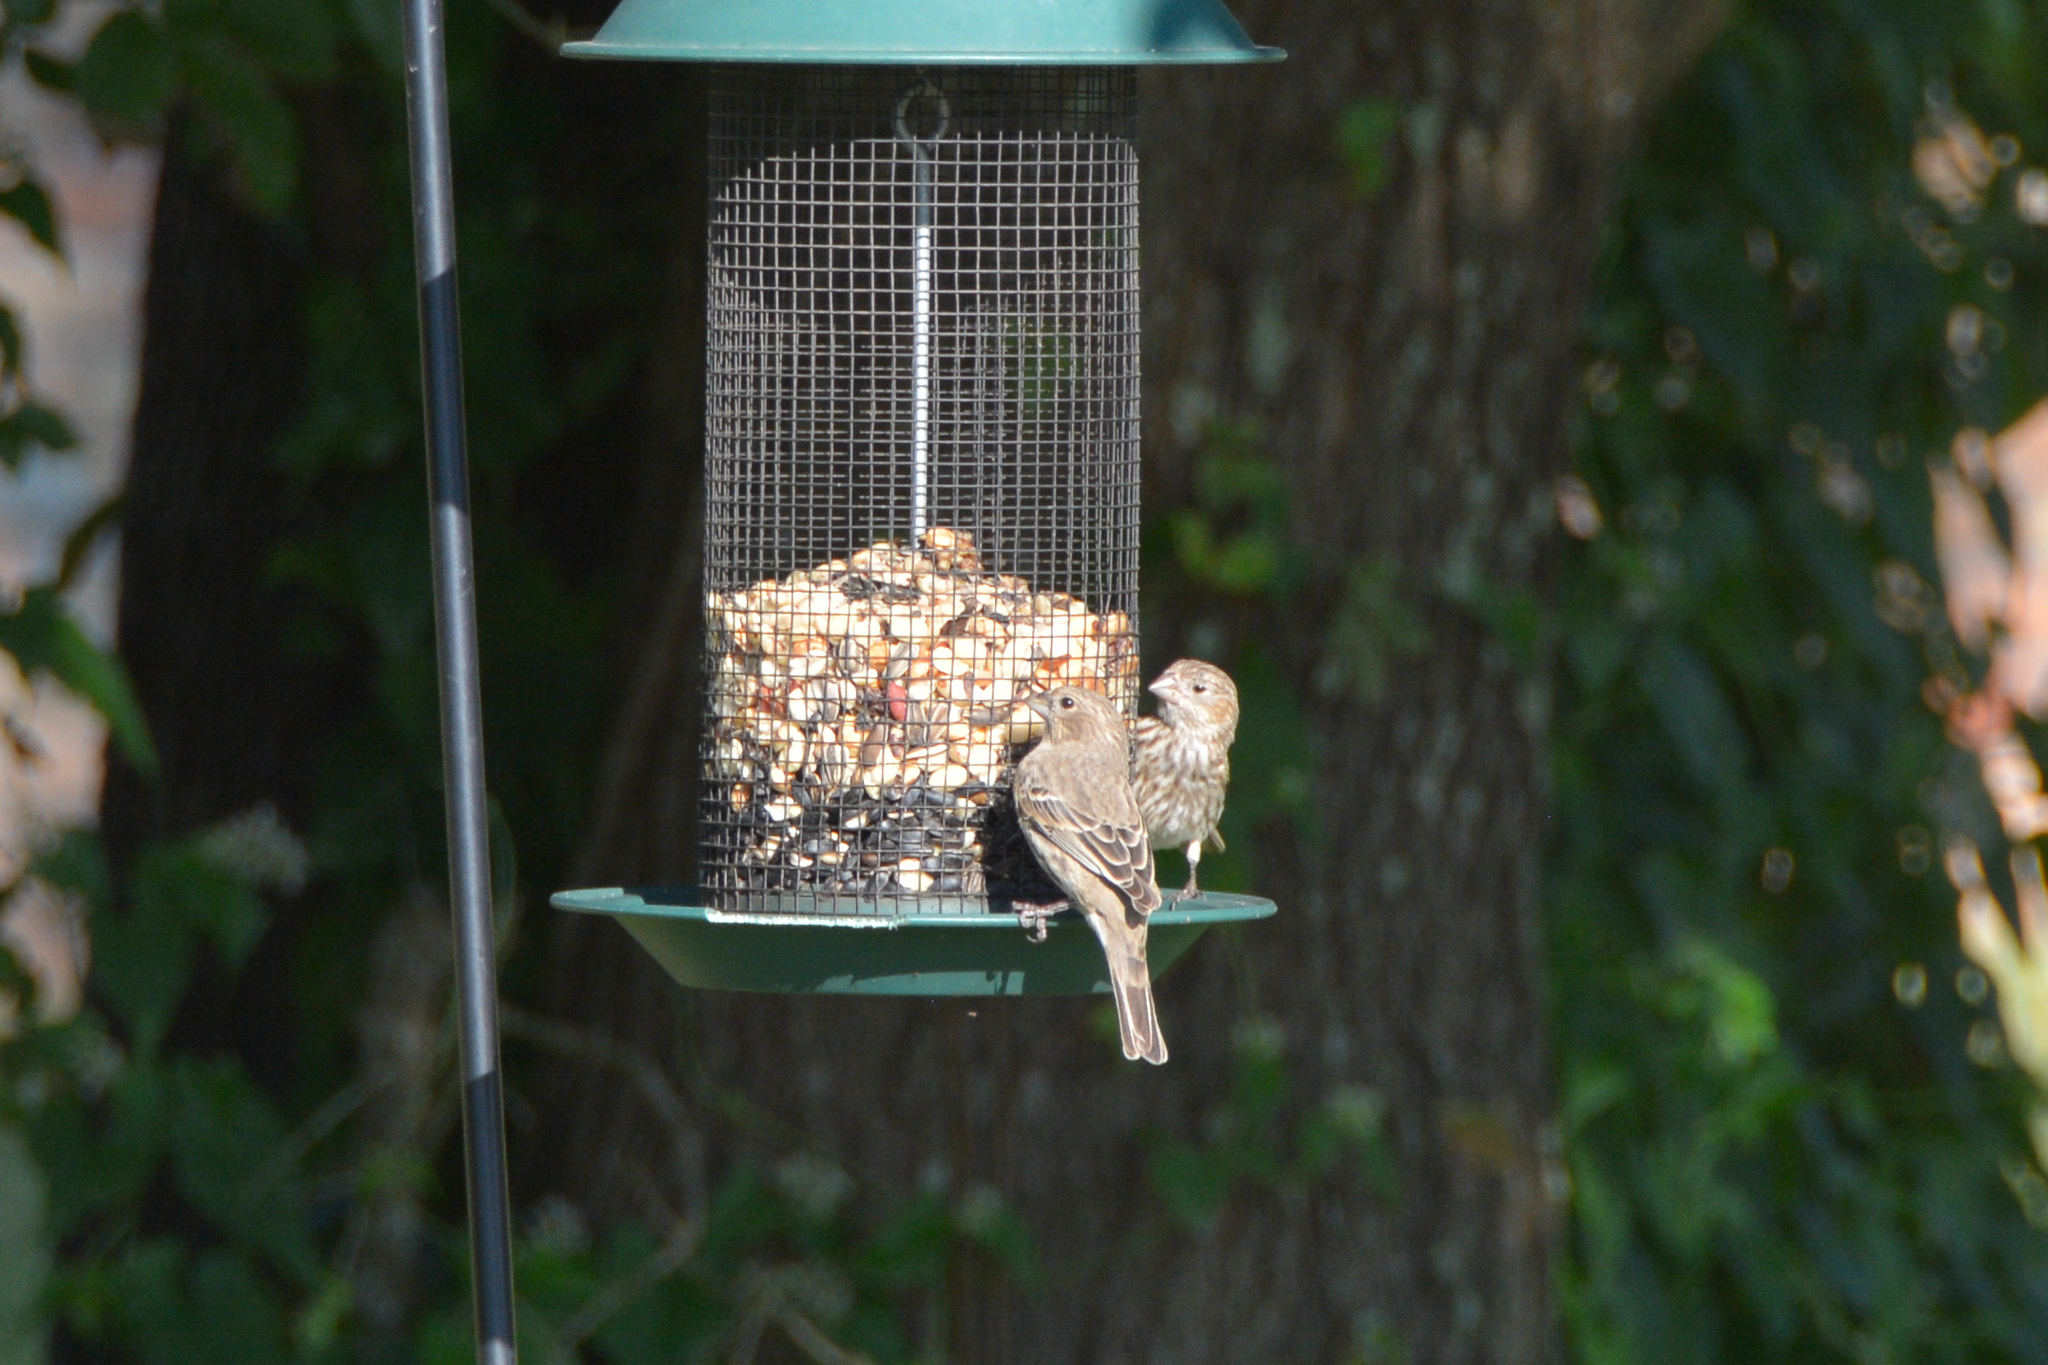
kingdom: Animalia
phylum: Chordata
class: Aves
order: Passeriformes
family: Fringillidae
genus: Haemorhous
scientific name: Haemorhous mexicanus
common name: House finch
